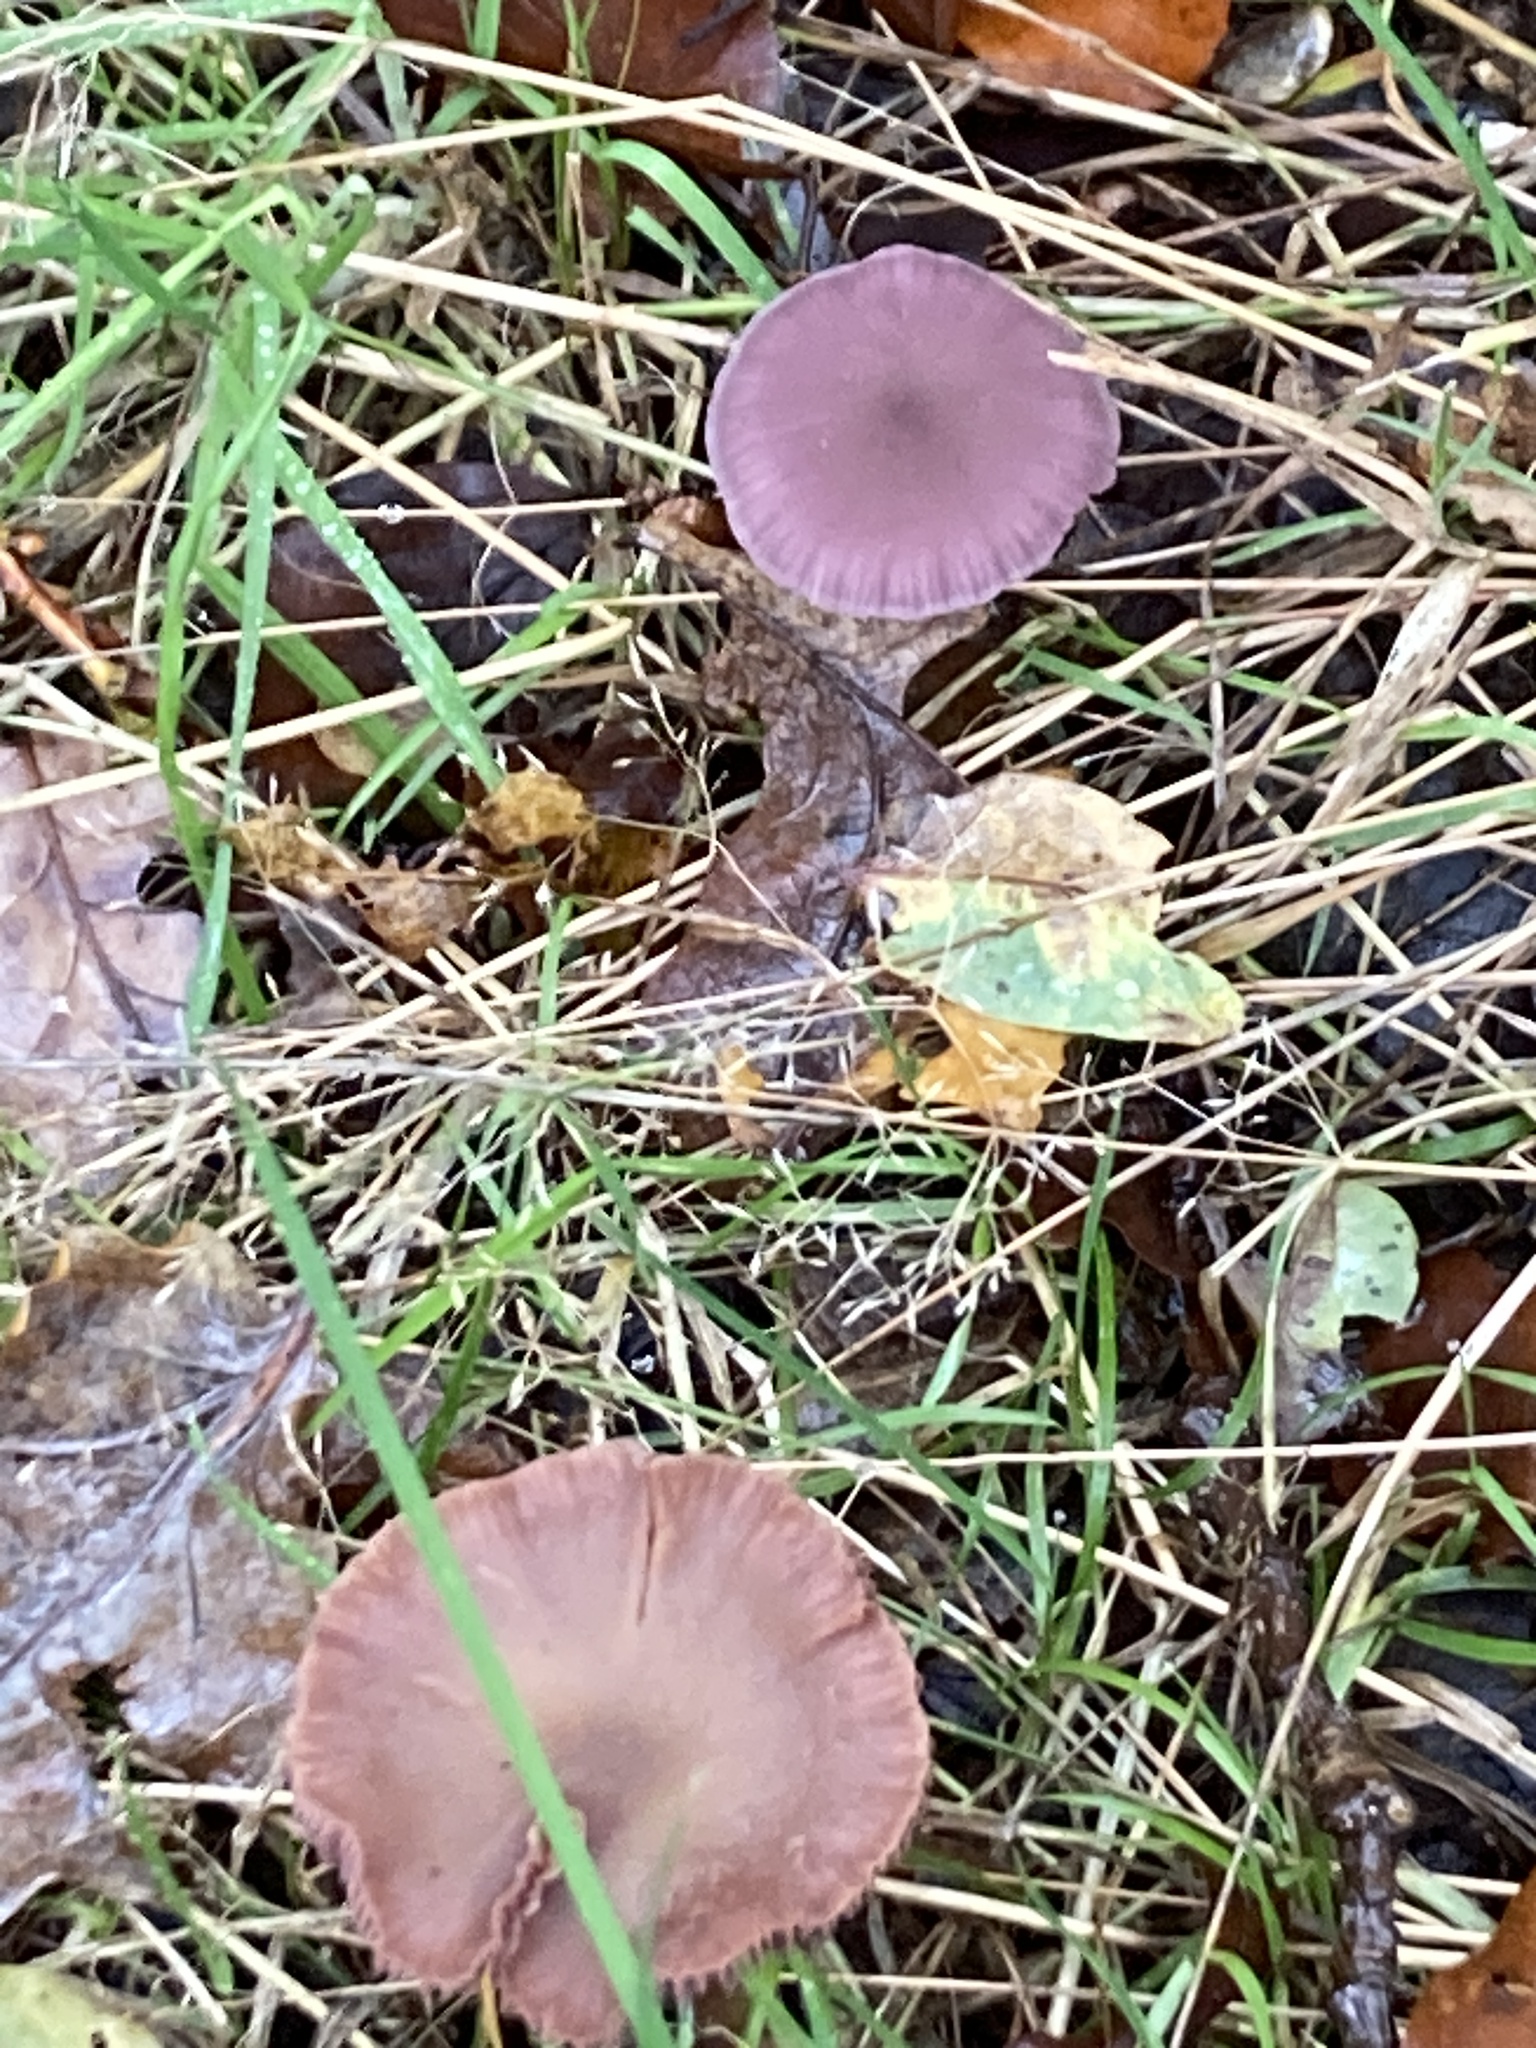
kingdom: Fungi
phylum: Basidiomycota
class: Agaricomycetes
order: Agaricales
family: Hydnangiaceae
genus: Laccaria
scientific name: Laccaria amethystina
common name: Amethyst deceiver
